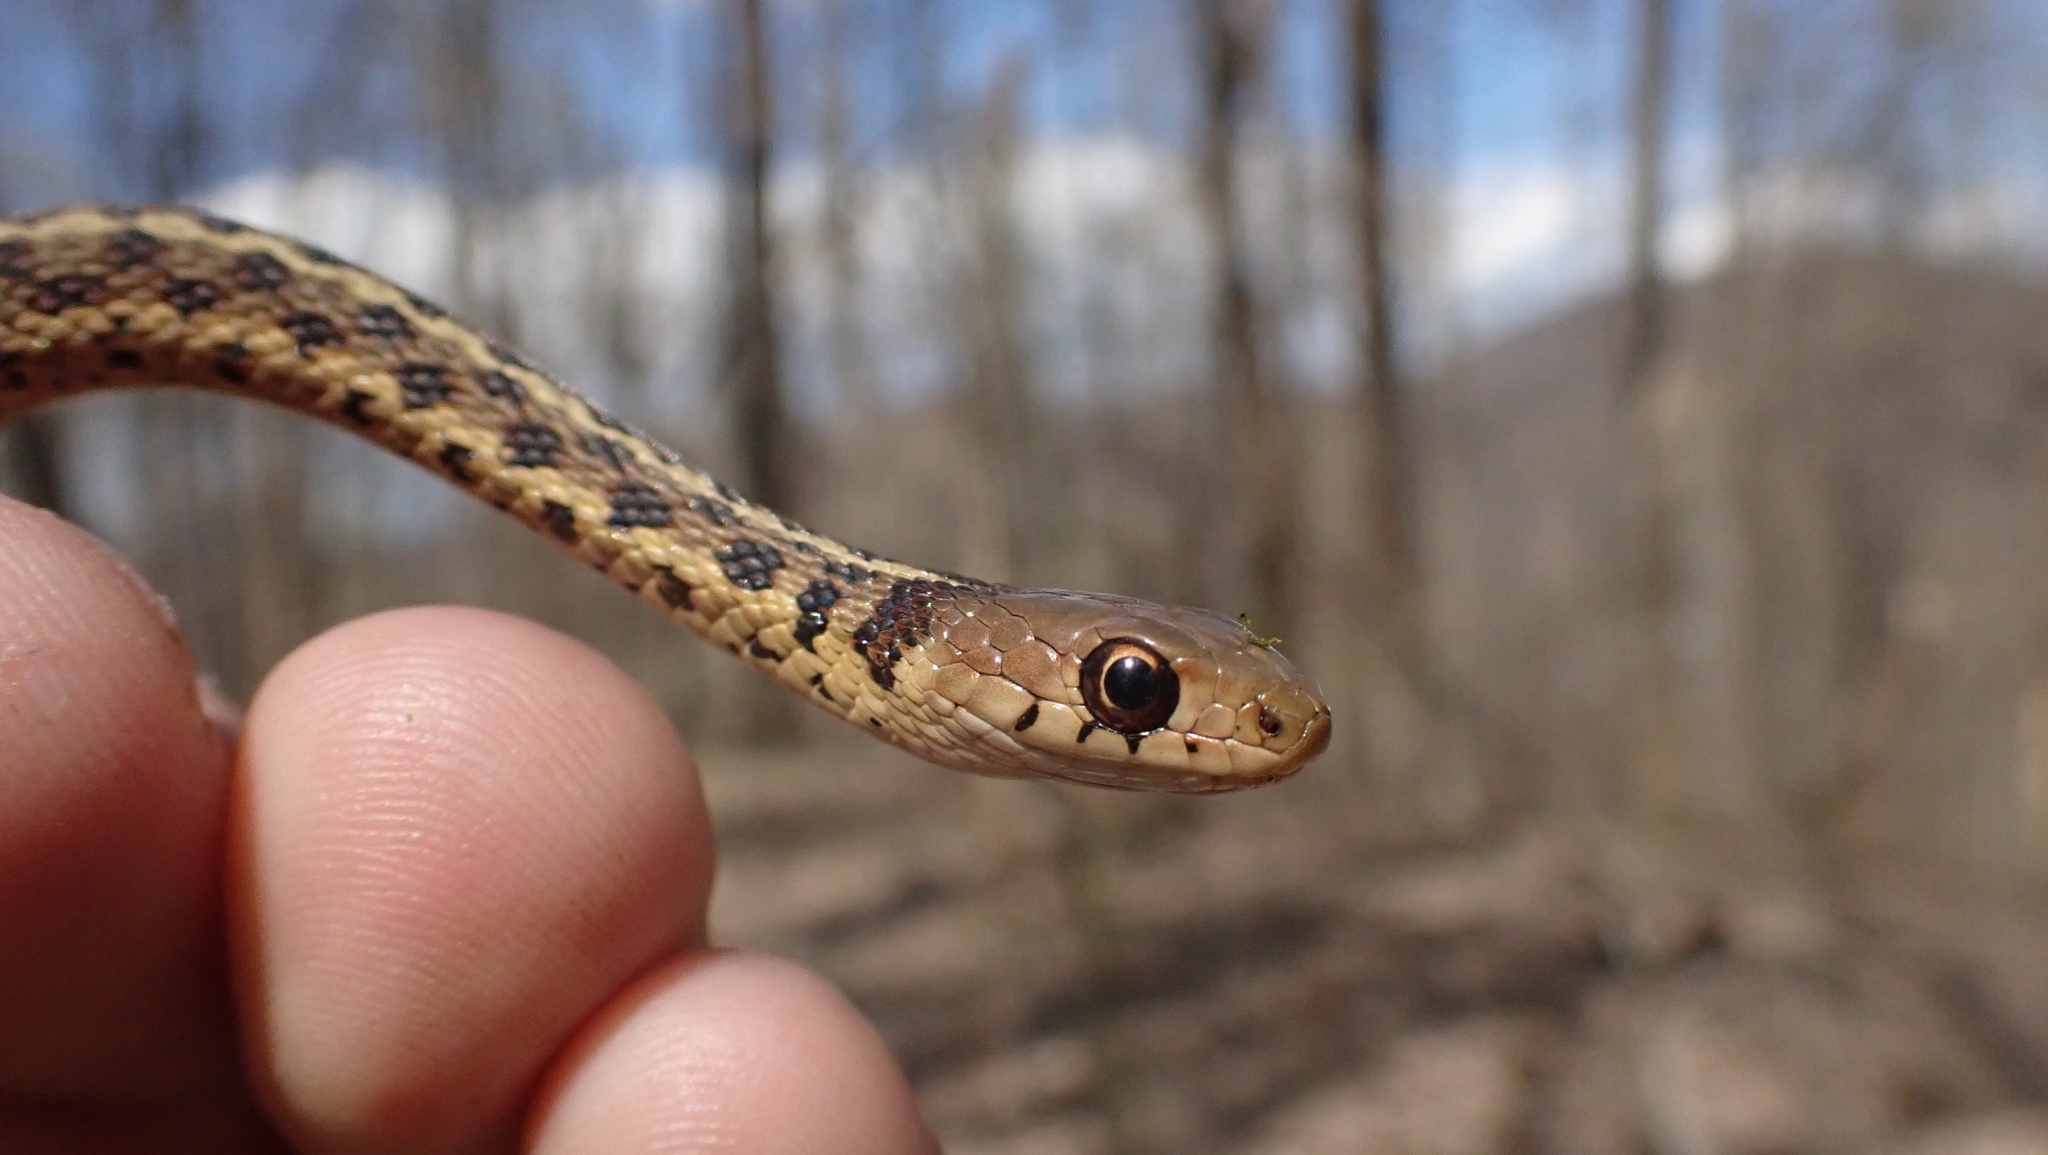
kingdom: Animalia
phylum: Chordata
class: Squamata
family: Colubridae
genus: Thamnophis
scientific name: Thamnophis sirtalis
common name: Common garter snake
